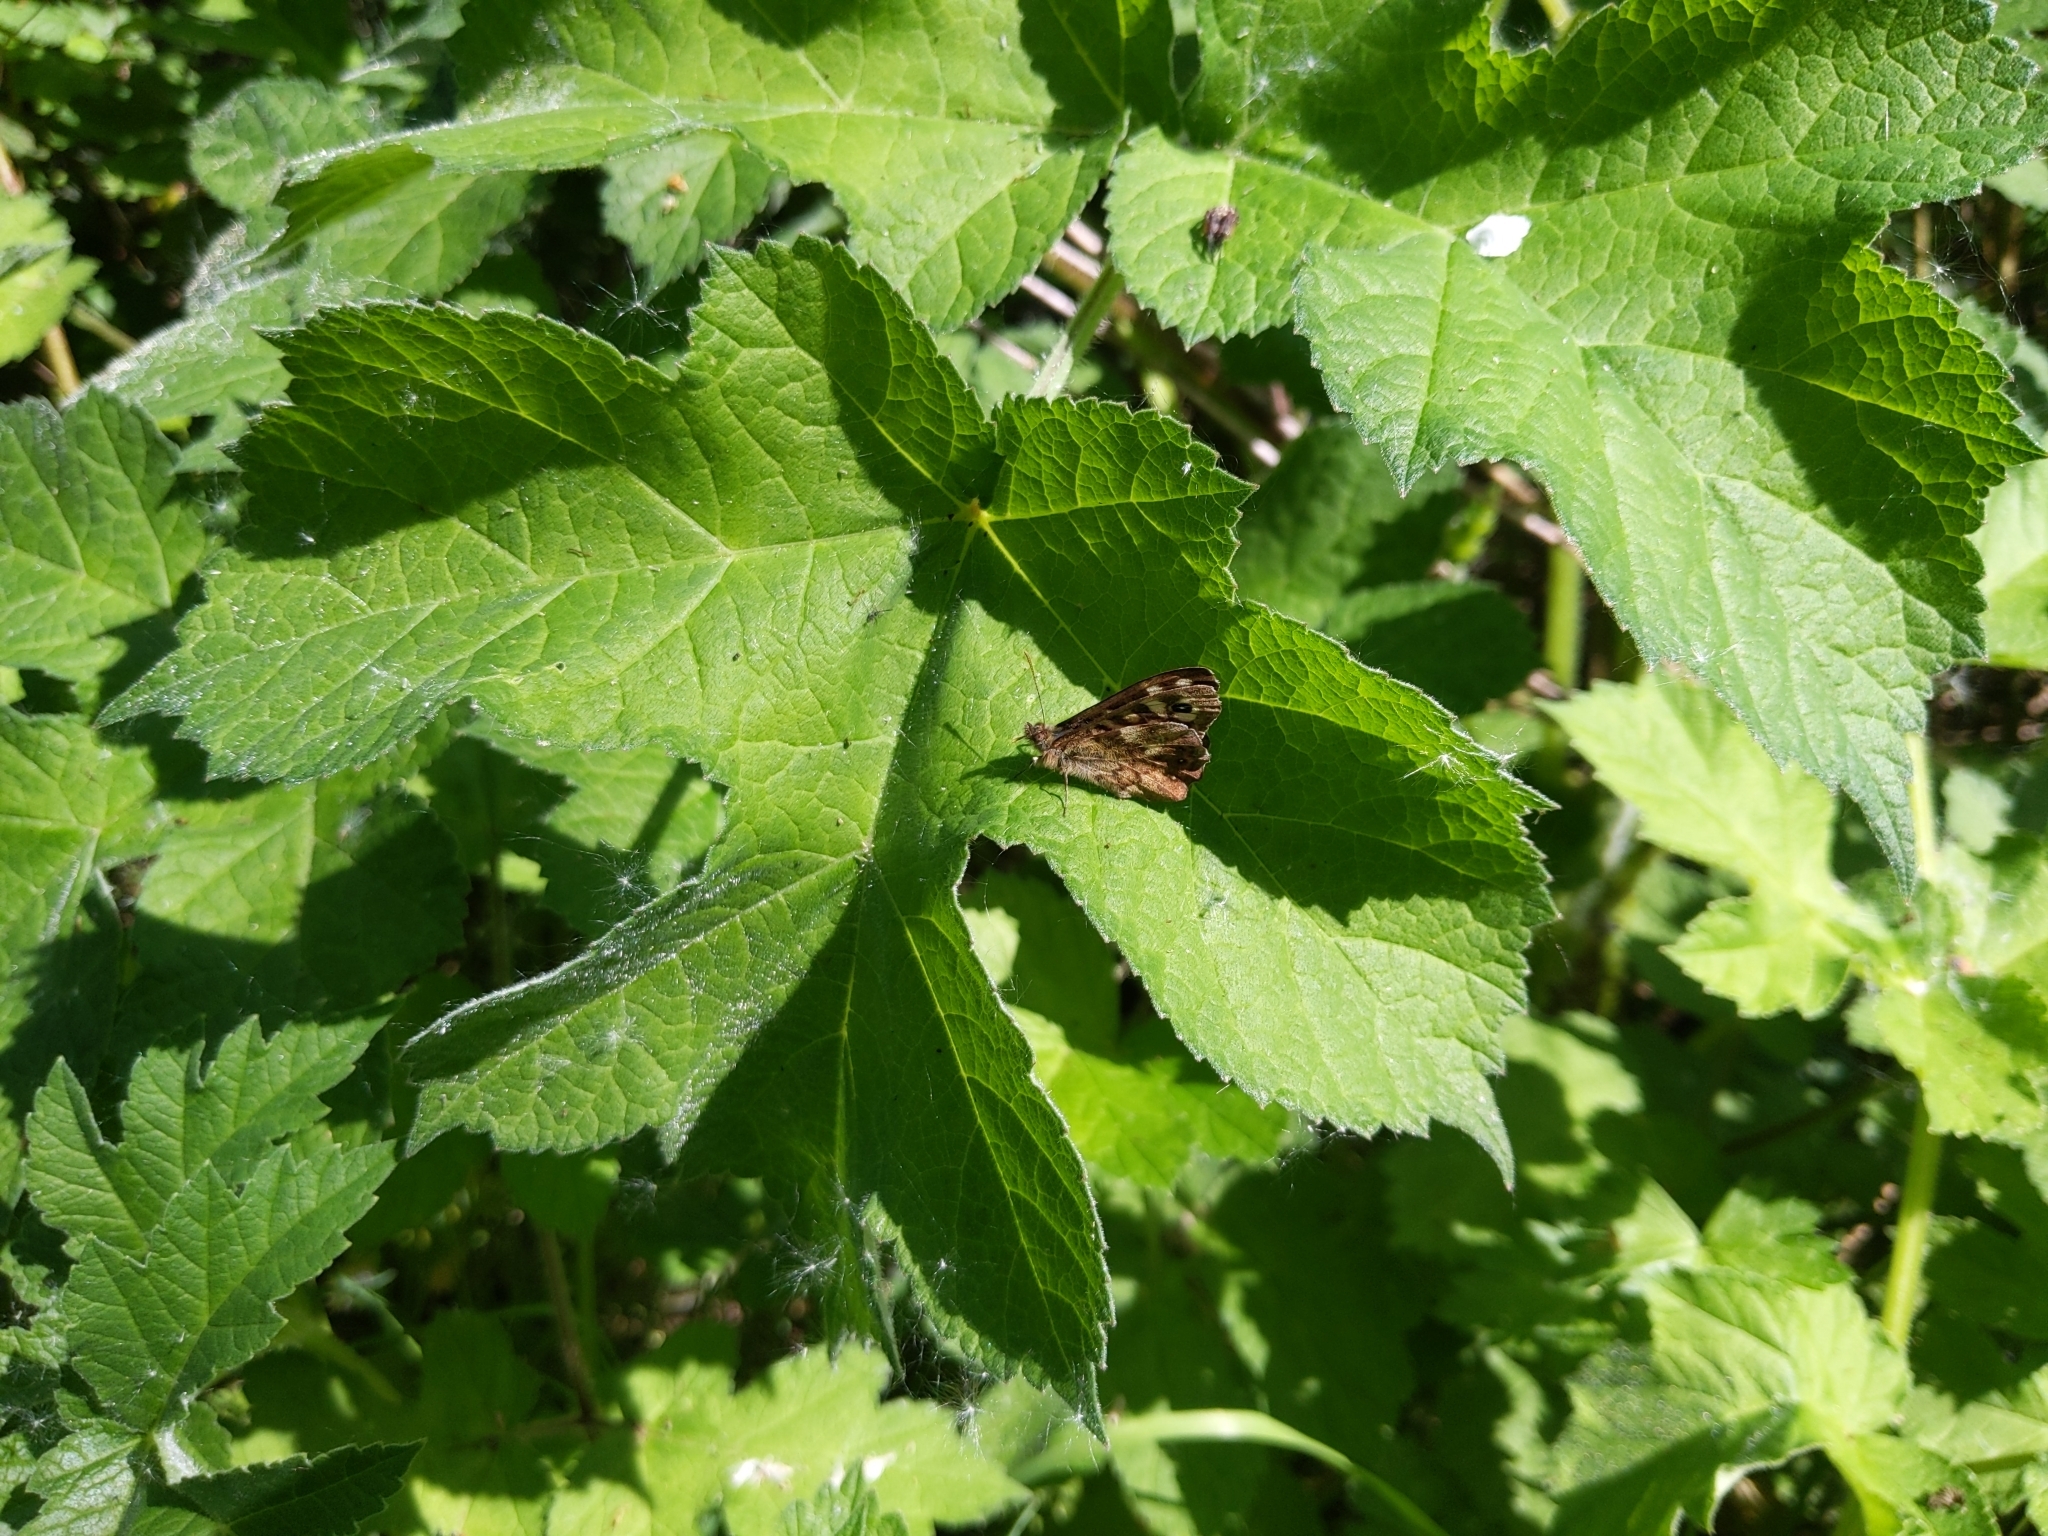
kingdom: Animalia
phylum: Arthropoda
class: Insecta
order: Lepidoptera
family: Nymphalidae
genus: Pararge
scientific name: Pararge aegeria
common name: Speckled wood
